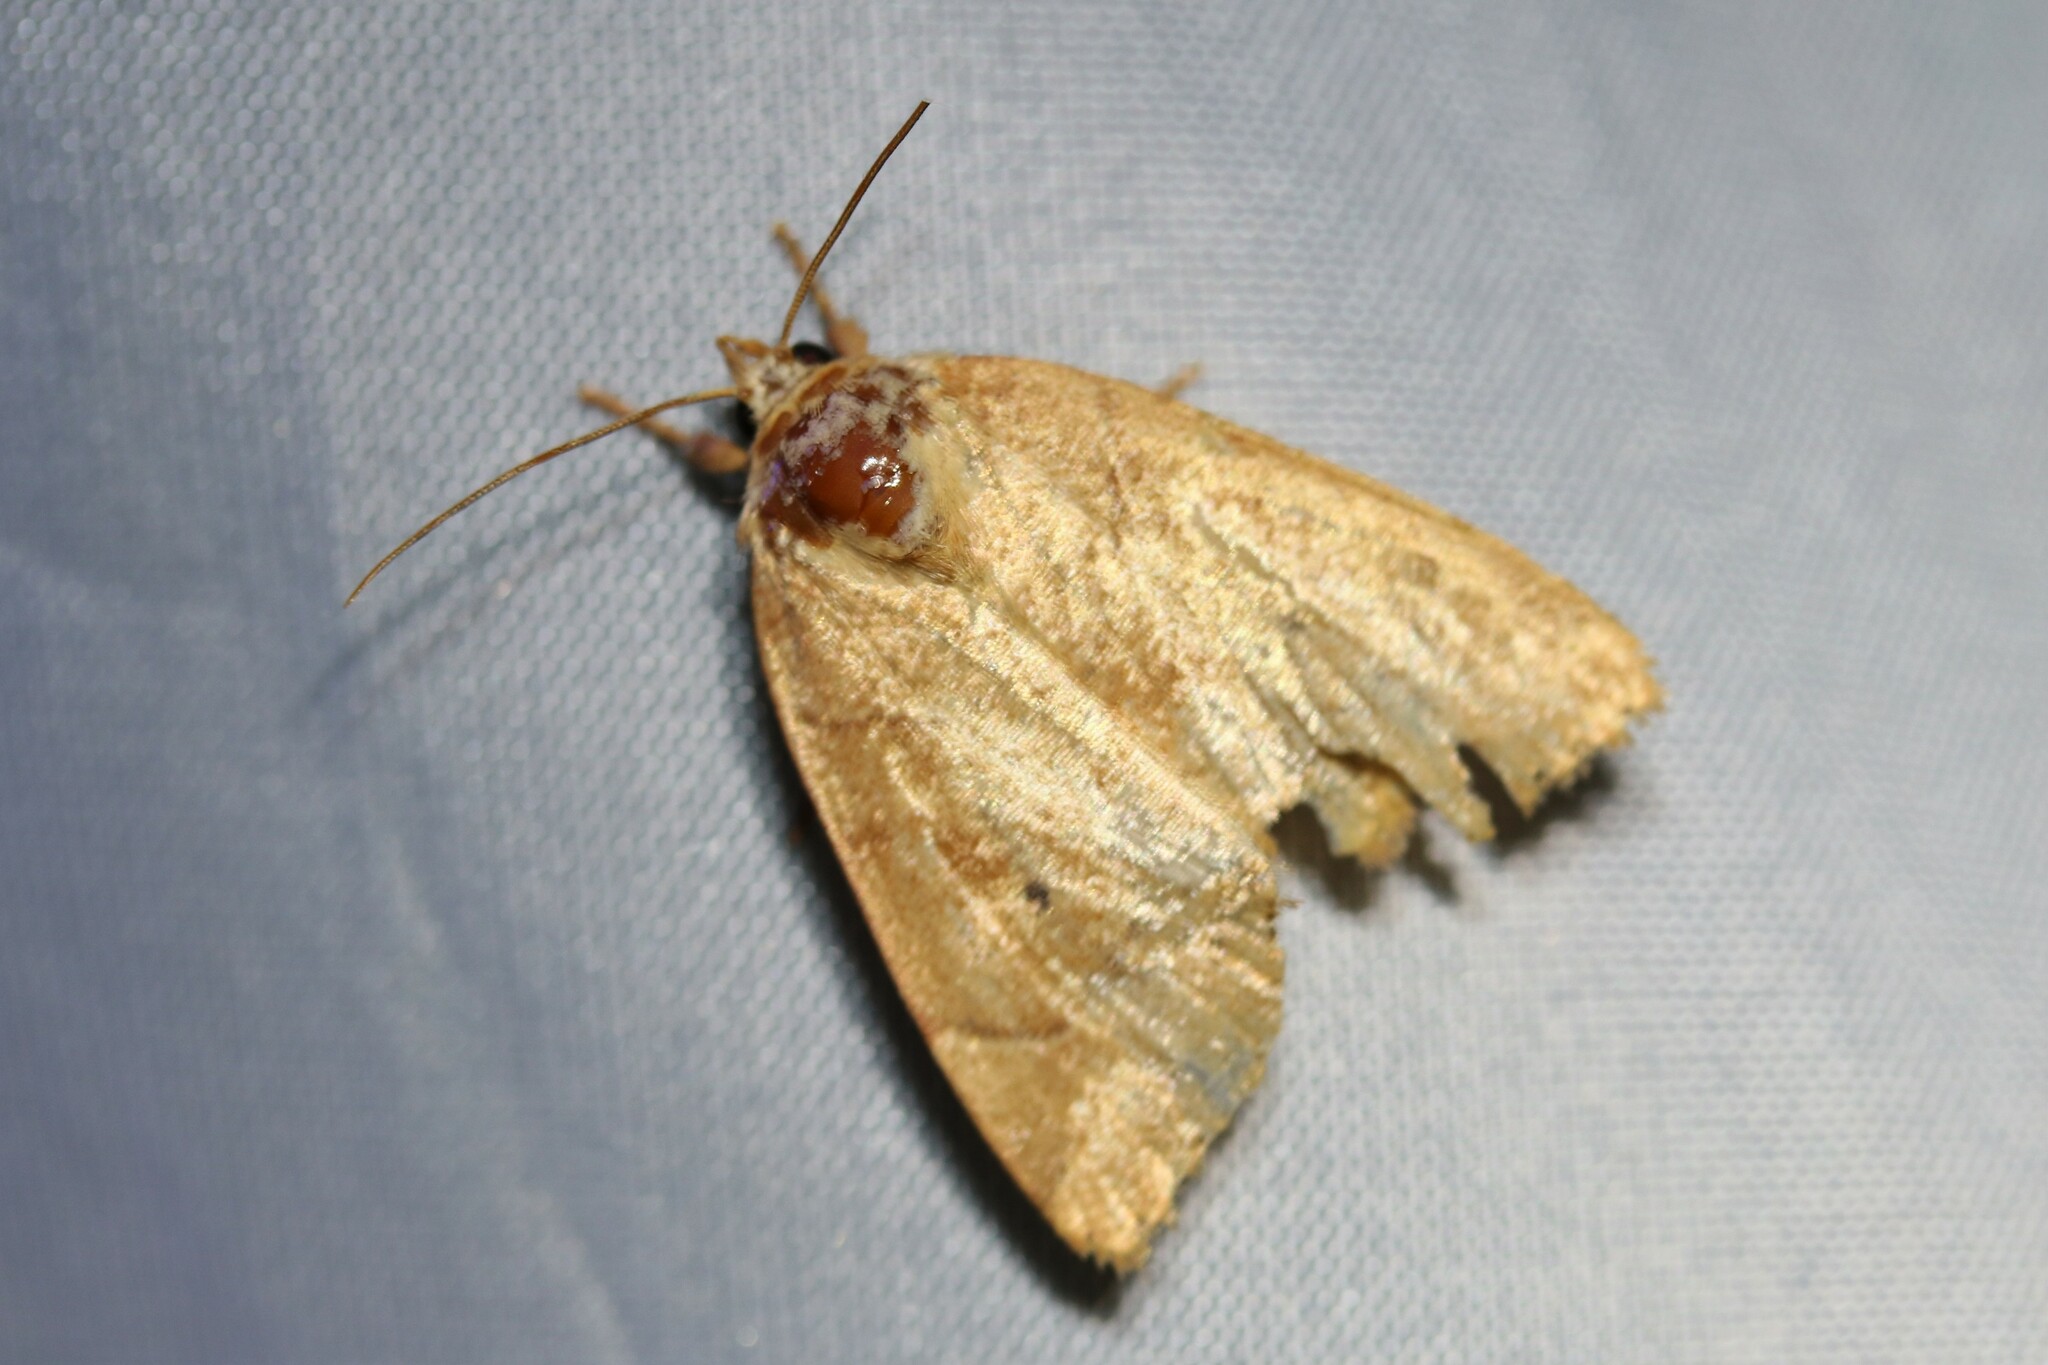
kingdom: Animalia
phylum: Arthropoda
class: Insecta
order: Lepidoptera
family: Noctuidae
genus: Cosmia
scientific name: Cosmia trapezina
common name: Dun-bar
